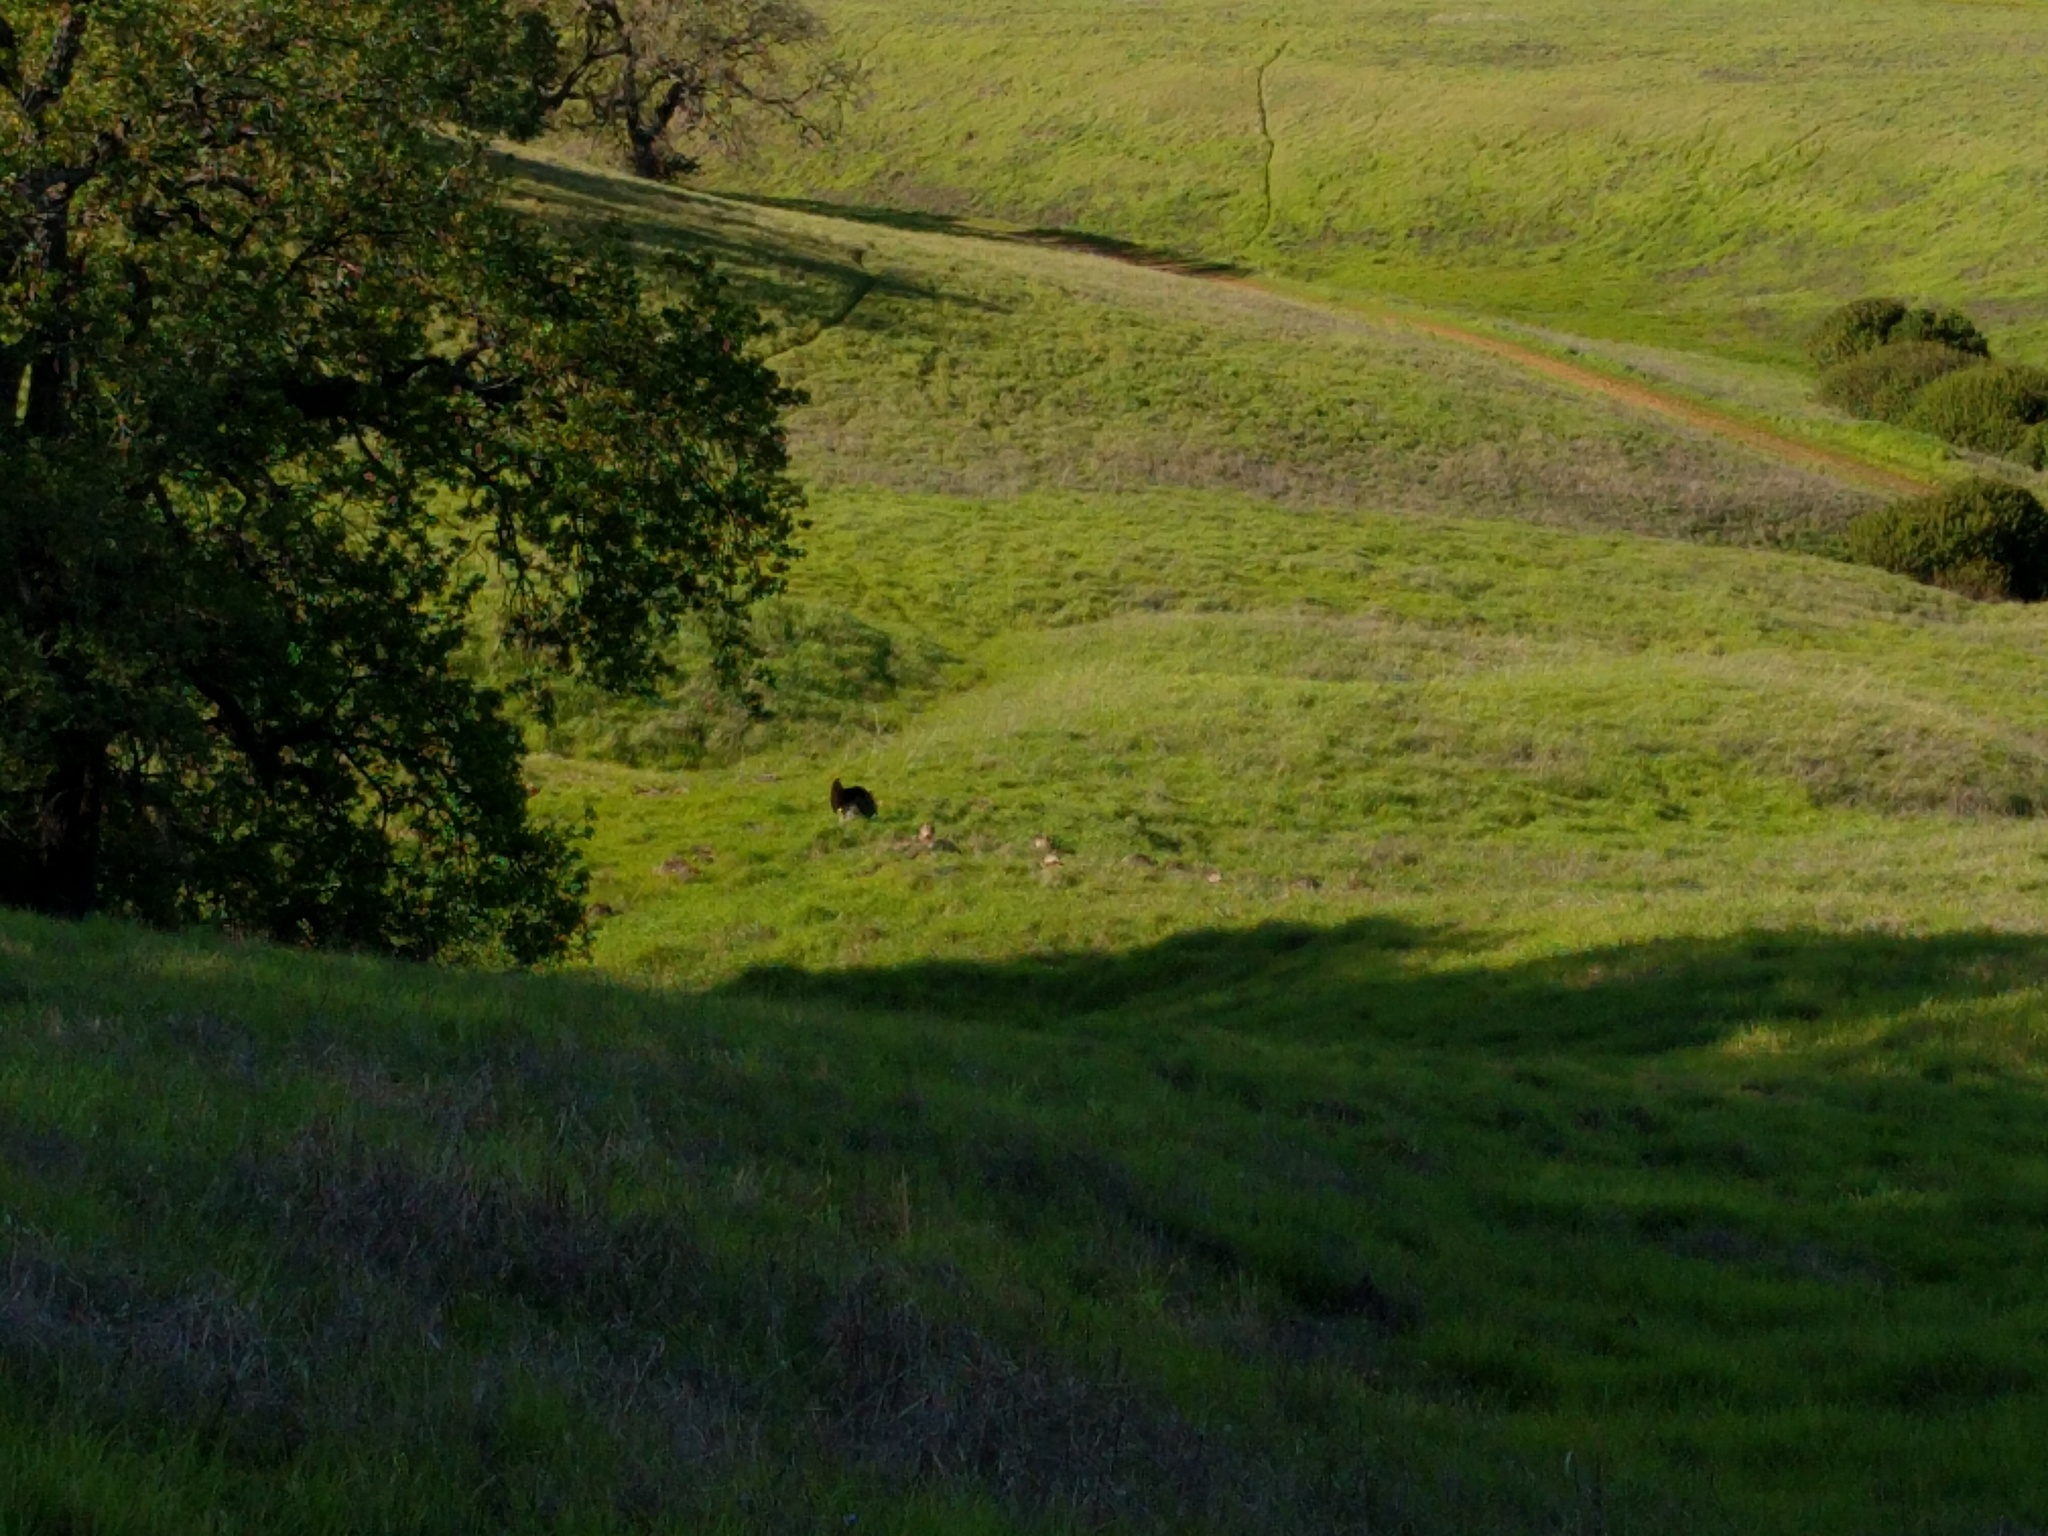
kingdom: Animalia
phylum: Chordata
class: Aves
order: Galliformes
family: Phasianidae
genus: Meleagris
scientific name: Meleagris gallopavo
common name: Wild turkey
